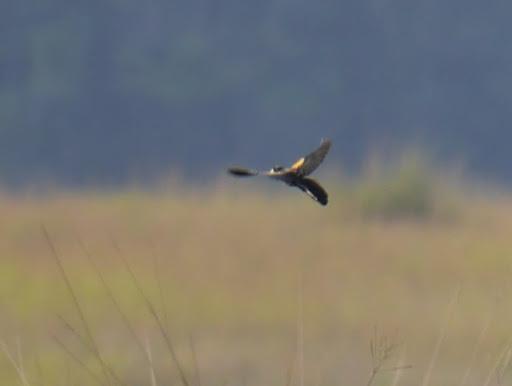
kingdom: Animalia
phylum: Chordata
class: Aves
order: Passeriformes
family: Ploceidae
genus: Euplectes
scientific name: Euplectes hartlaubi
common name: Marsh widowbird
